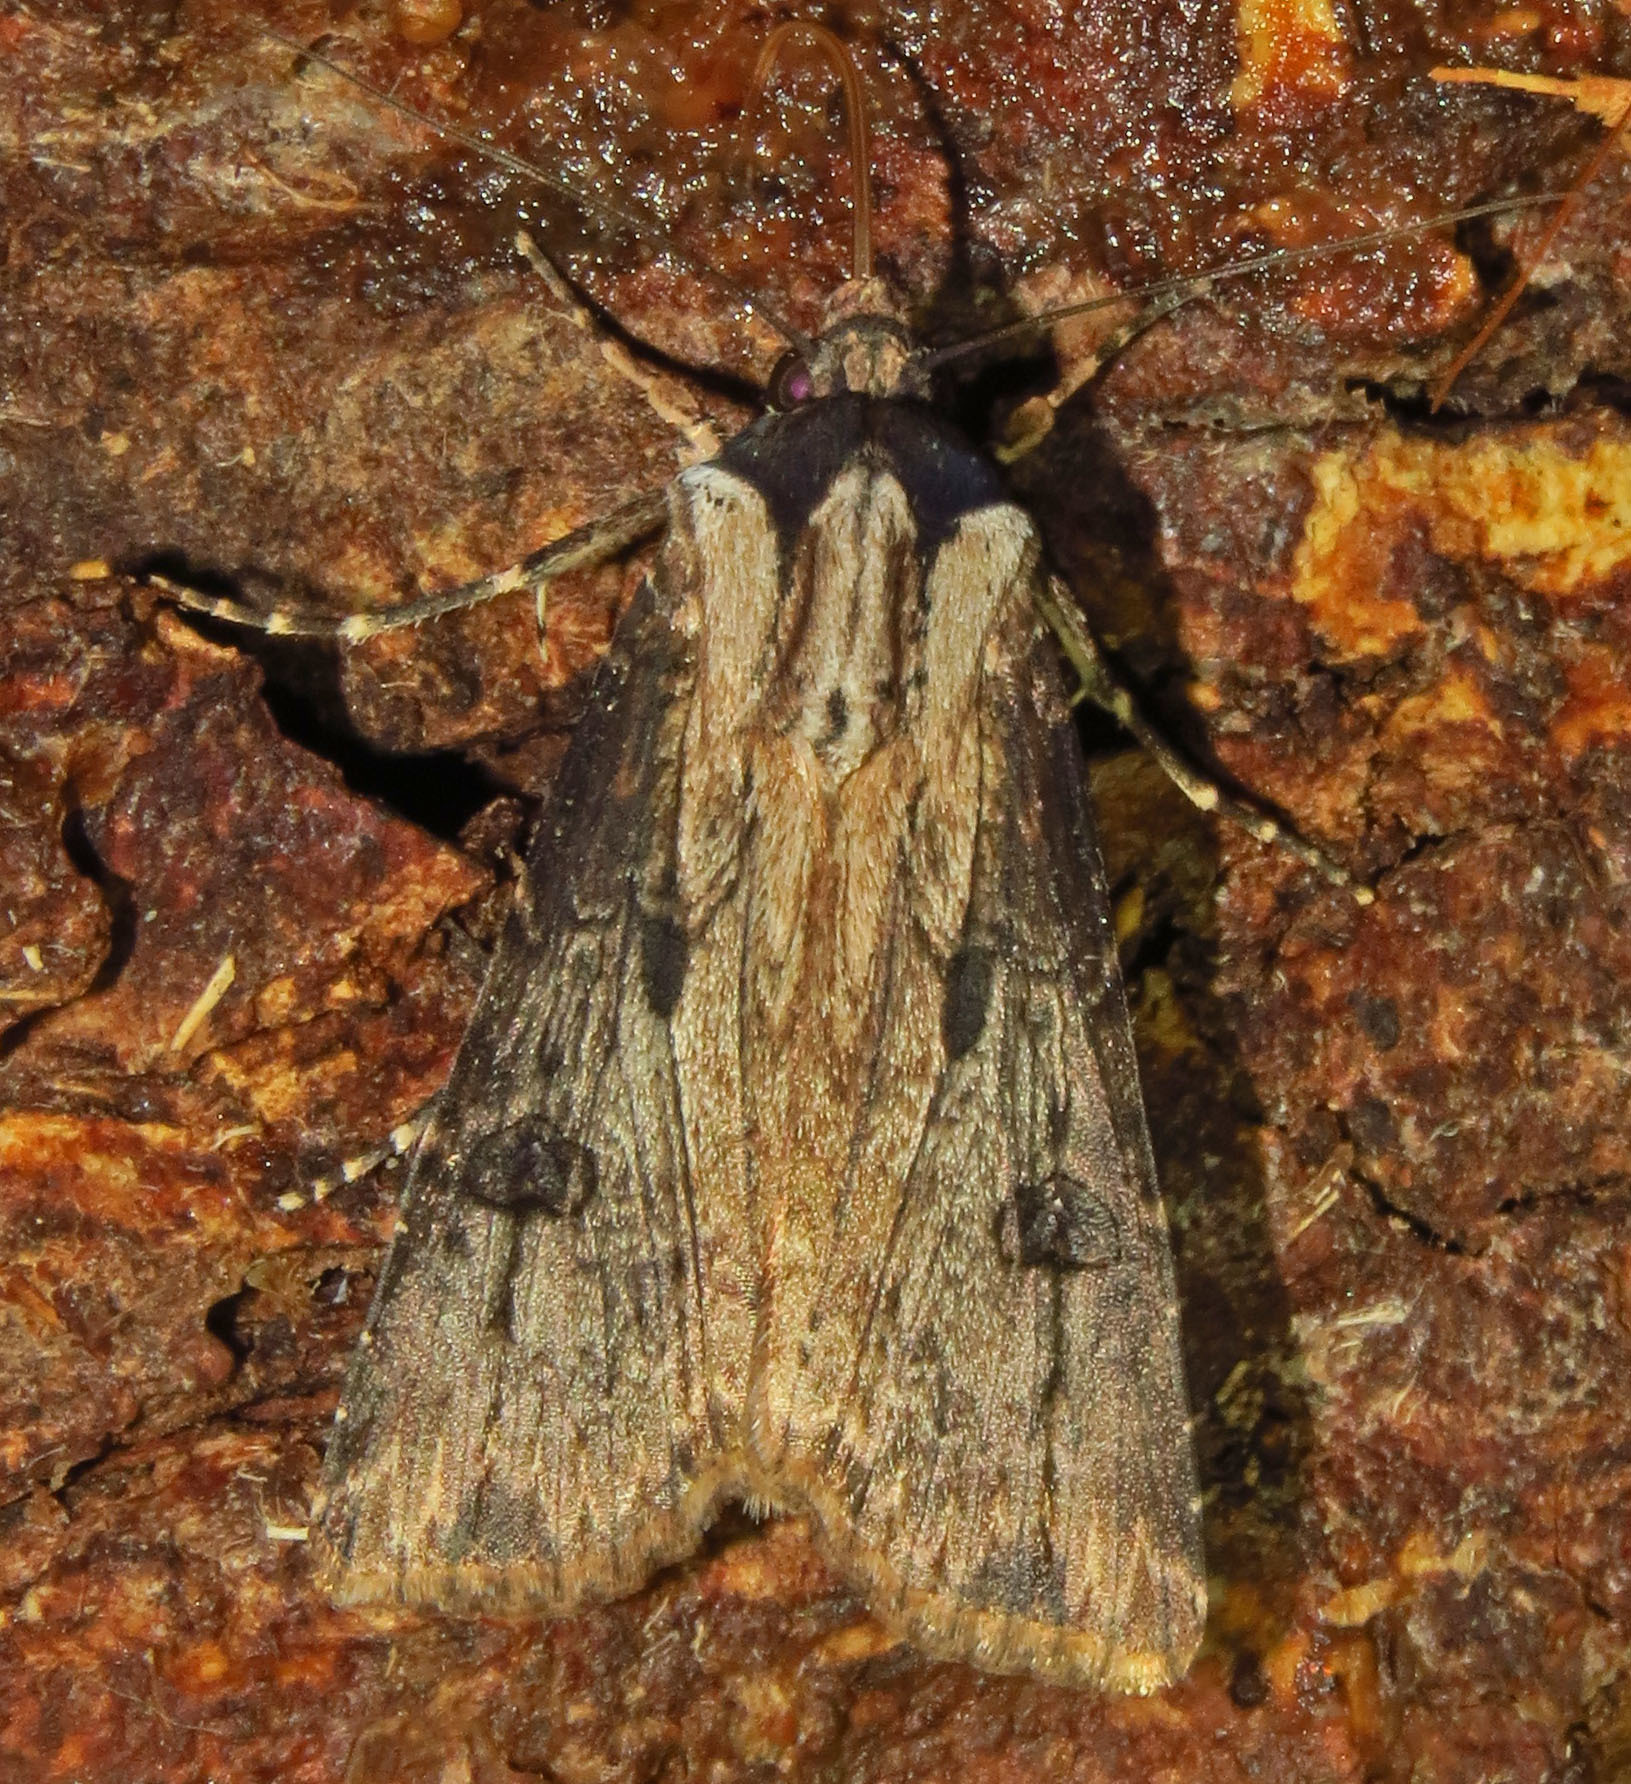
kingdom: Animalia
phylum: Arthropoda
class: Insecta
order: Lepidoptera
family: Noctuidae
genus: Agrotis
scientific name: Agrotis malefida
